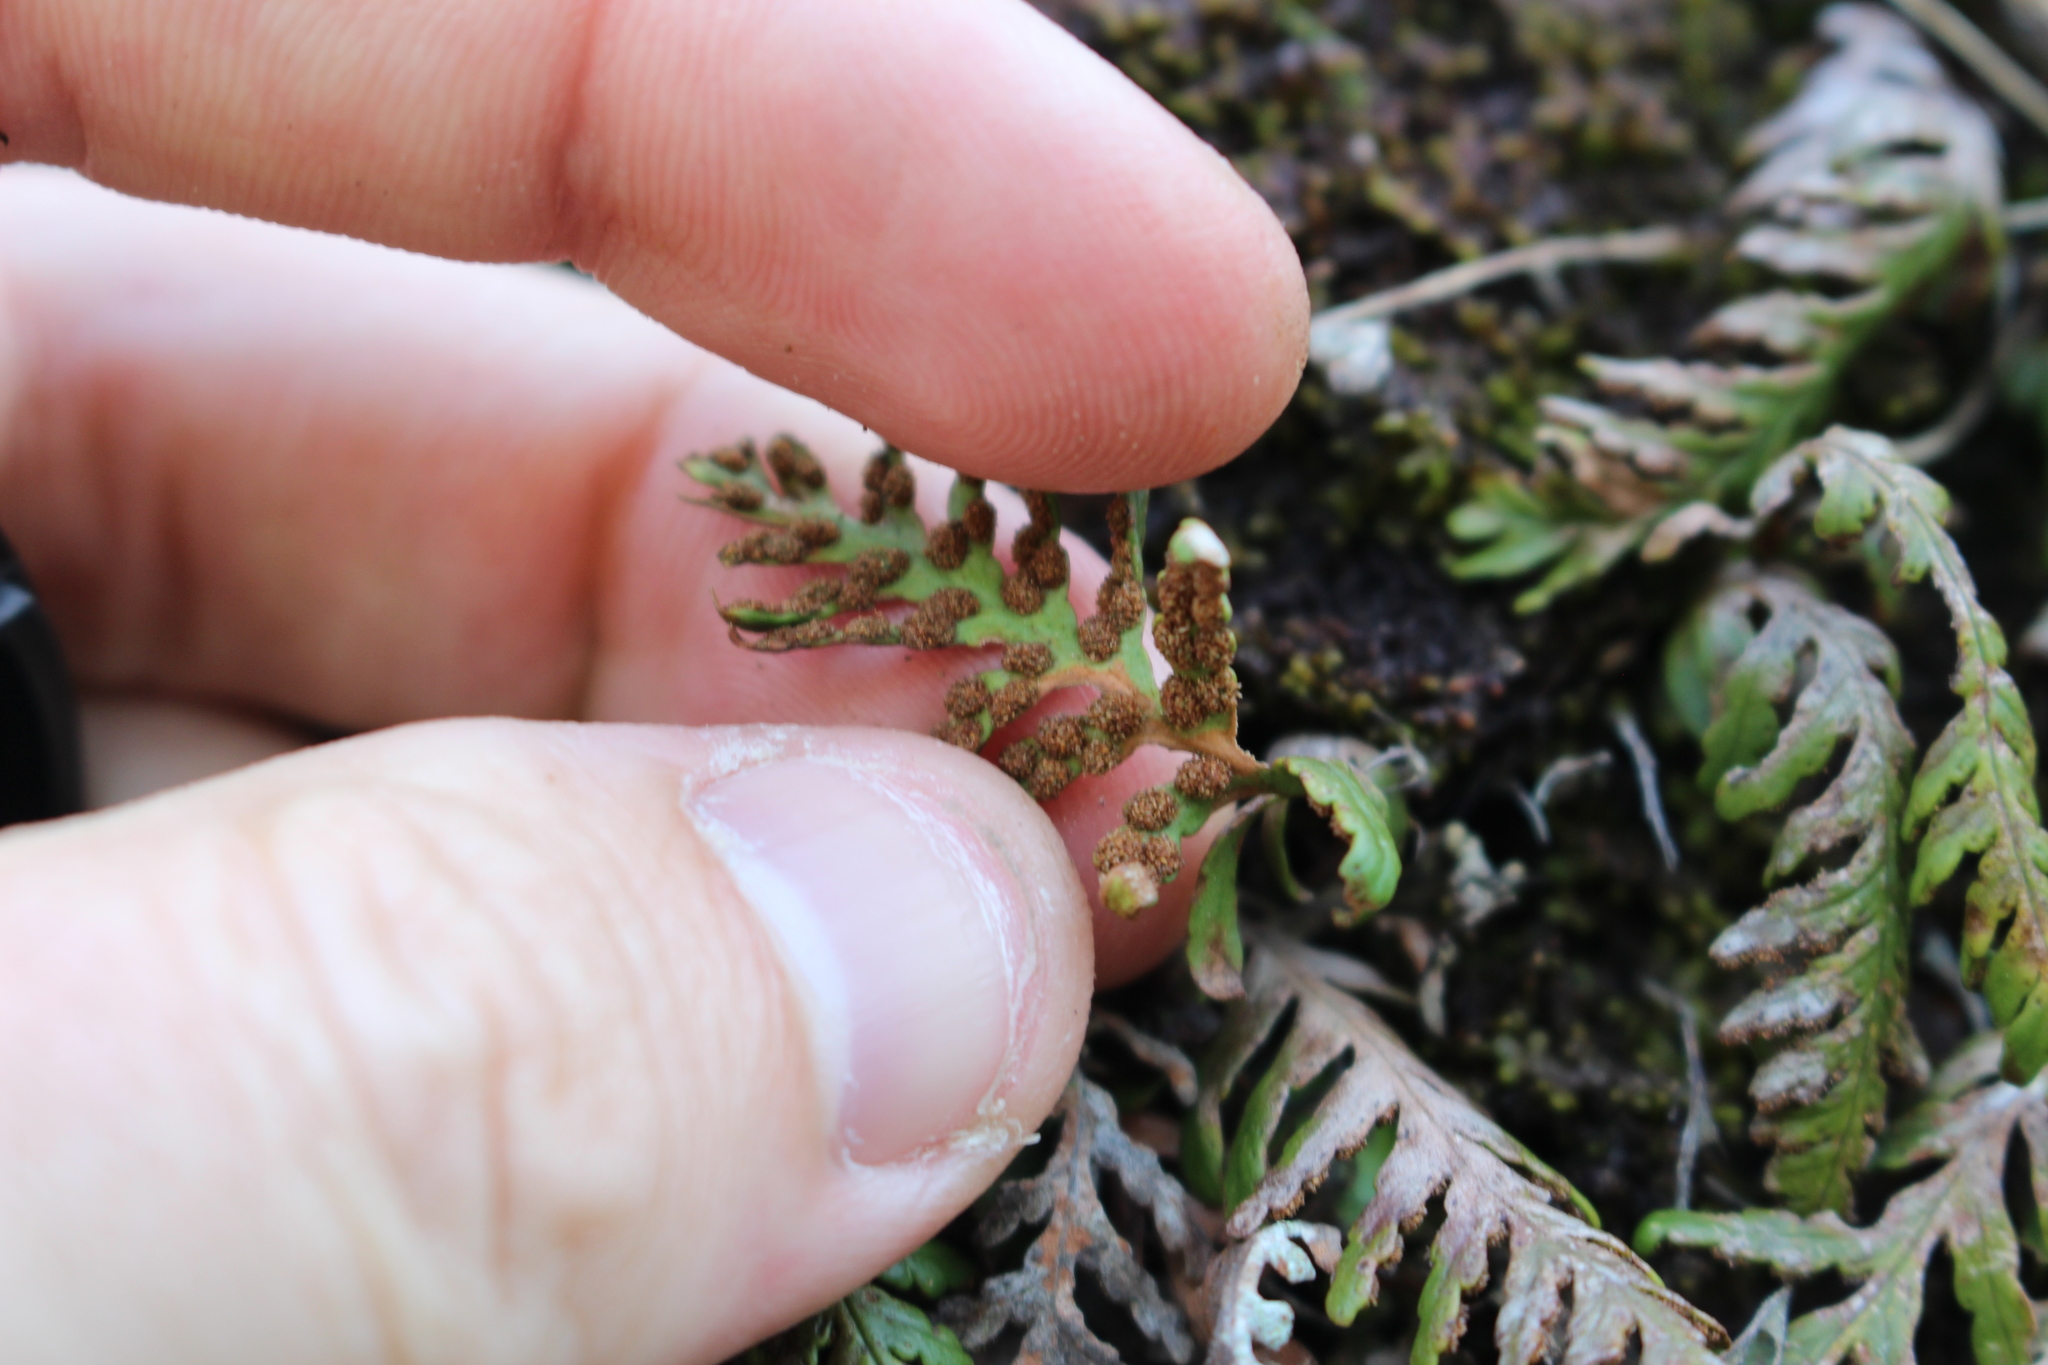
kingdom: Plantae
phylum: Tracheophyta
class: Polypodiopsida
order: Polypodiales
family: Polypodiaceae
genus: Notogrammitis
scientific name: Notogrammitis heterophylla
